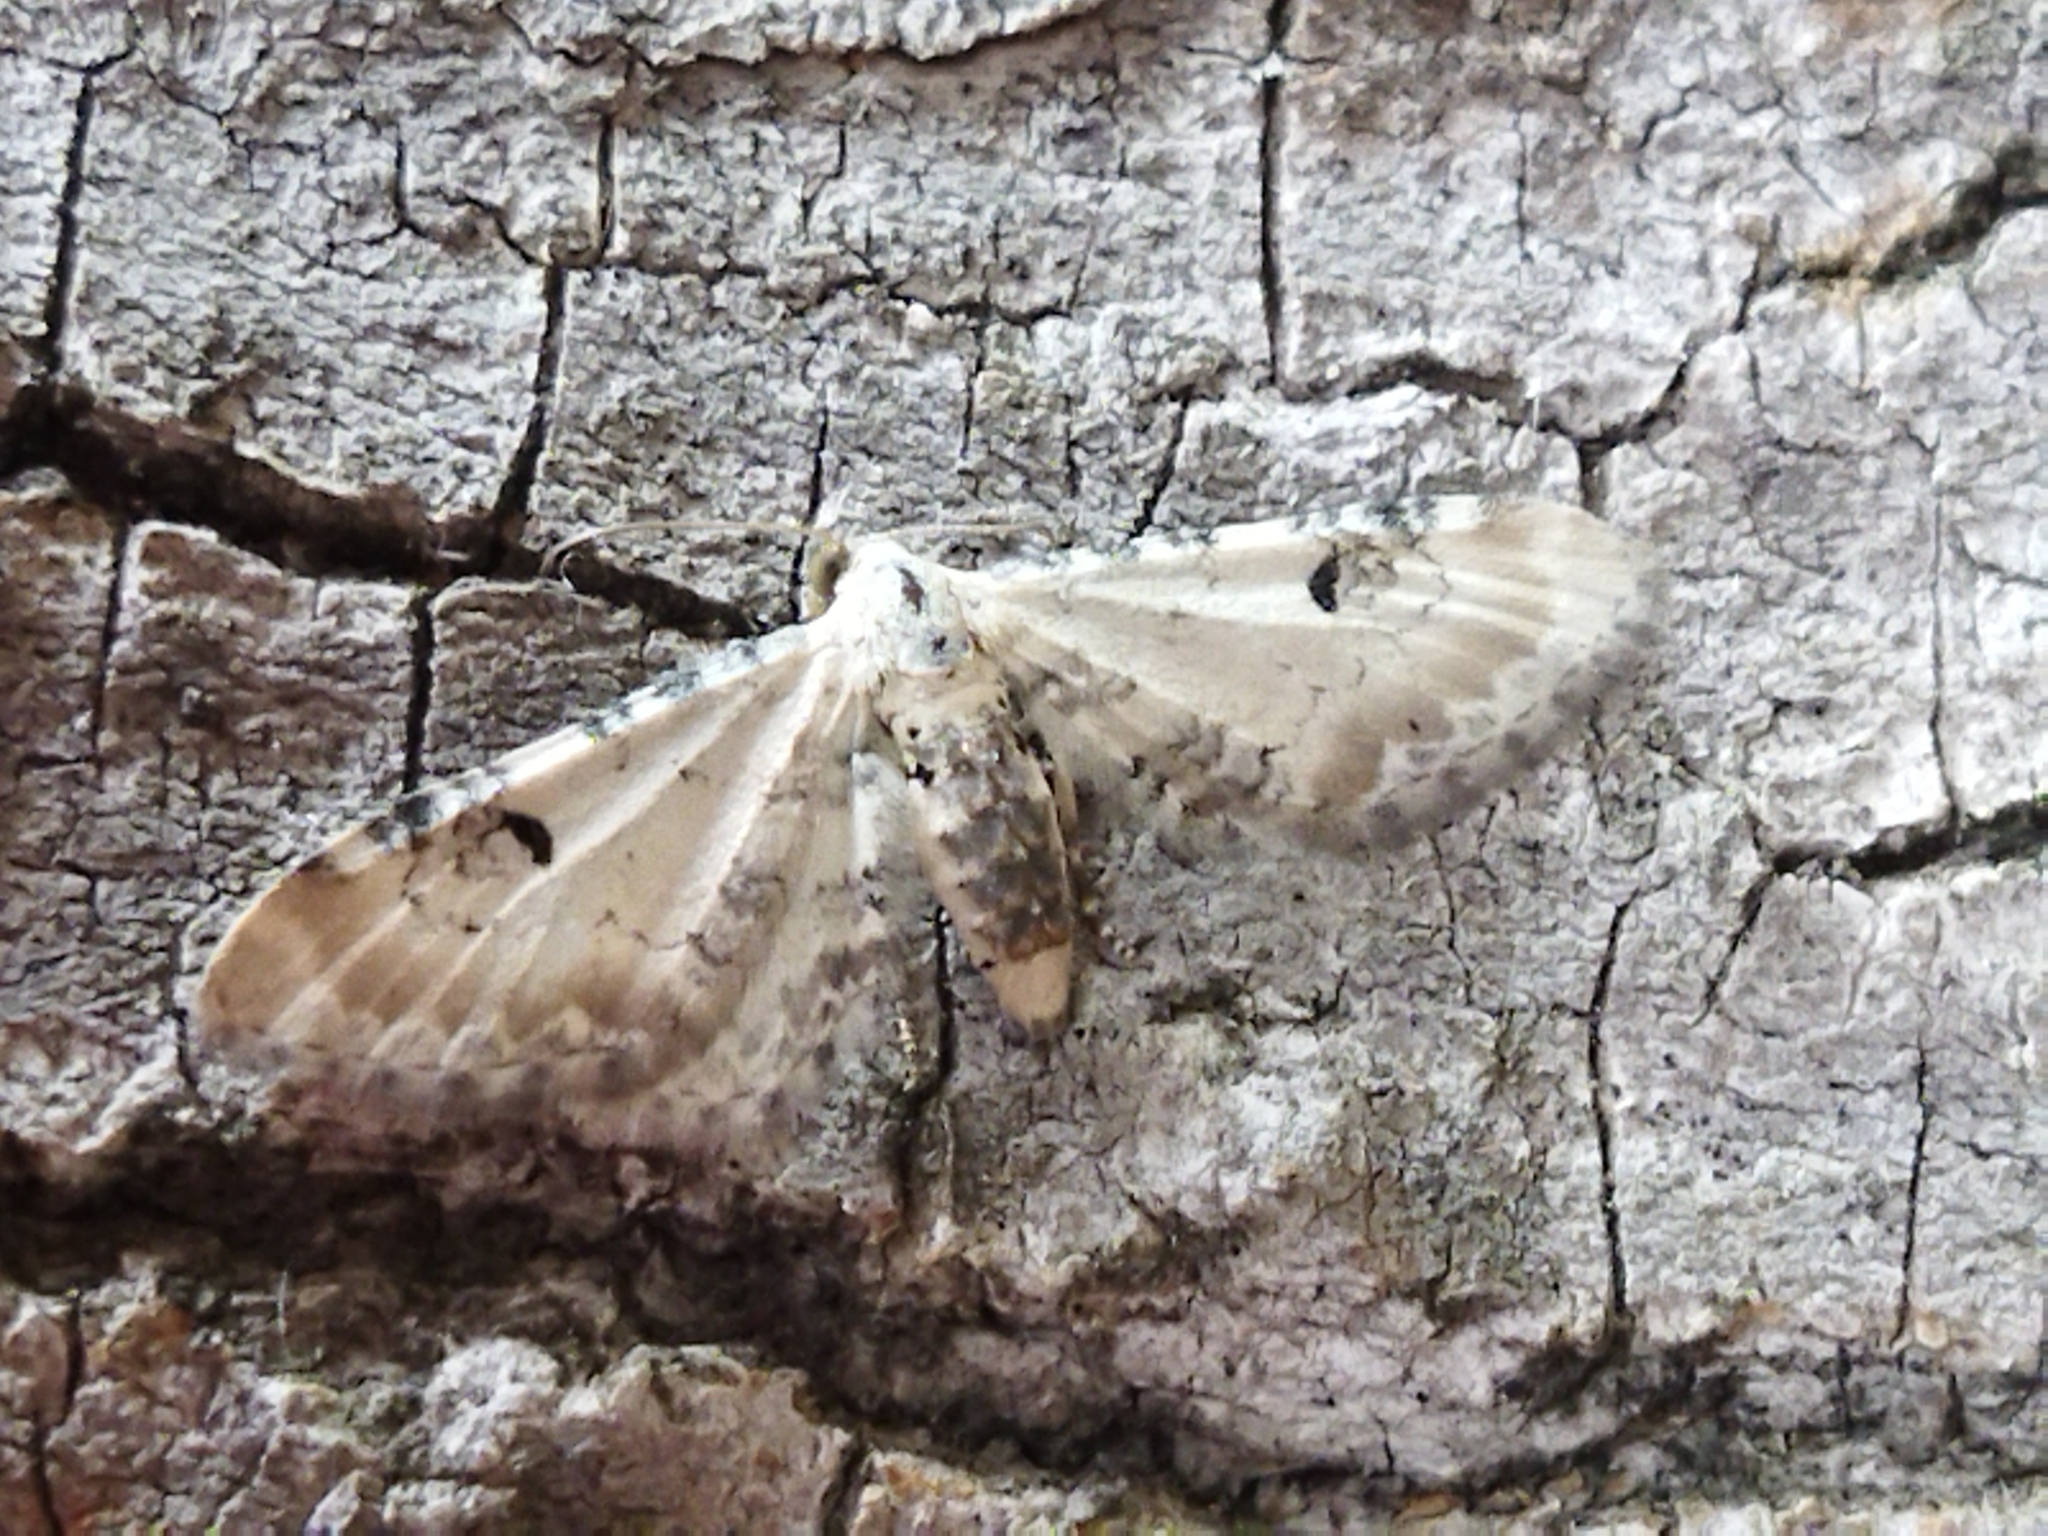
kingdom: Animalia
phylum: Arthropoda
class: Insecta
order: Lepidoptera
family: Geometridae
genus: Eupithecia
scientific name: Eupithecia centaureata
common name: Lime-speck pug
